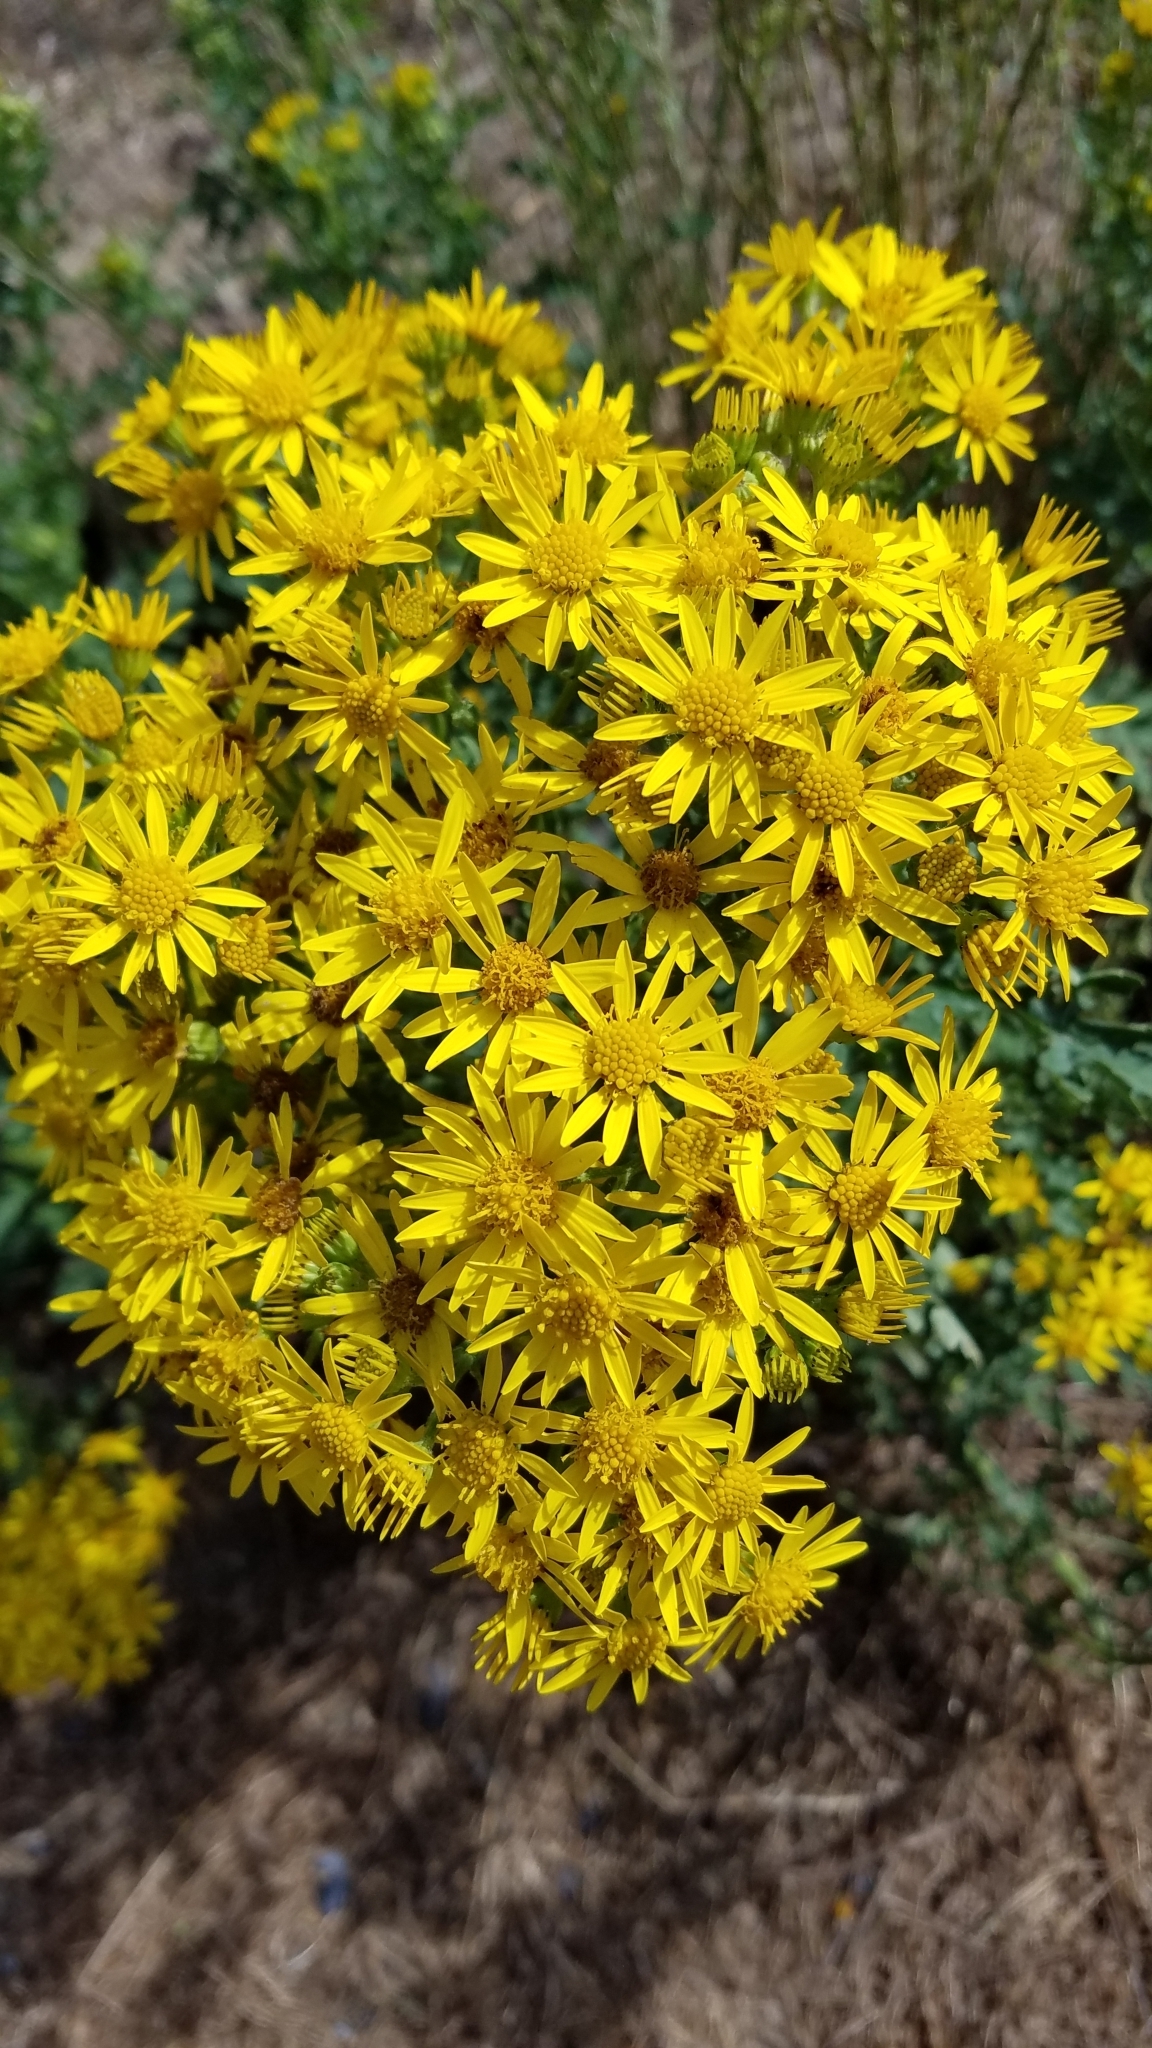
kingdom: Plantae
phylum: Tracheophyta
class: Magnoliopsida
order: Asterales
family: Asteraceae
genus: Jacobaea
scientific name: Jacobaea vulgaris
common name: Stinking willie
